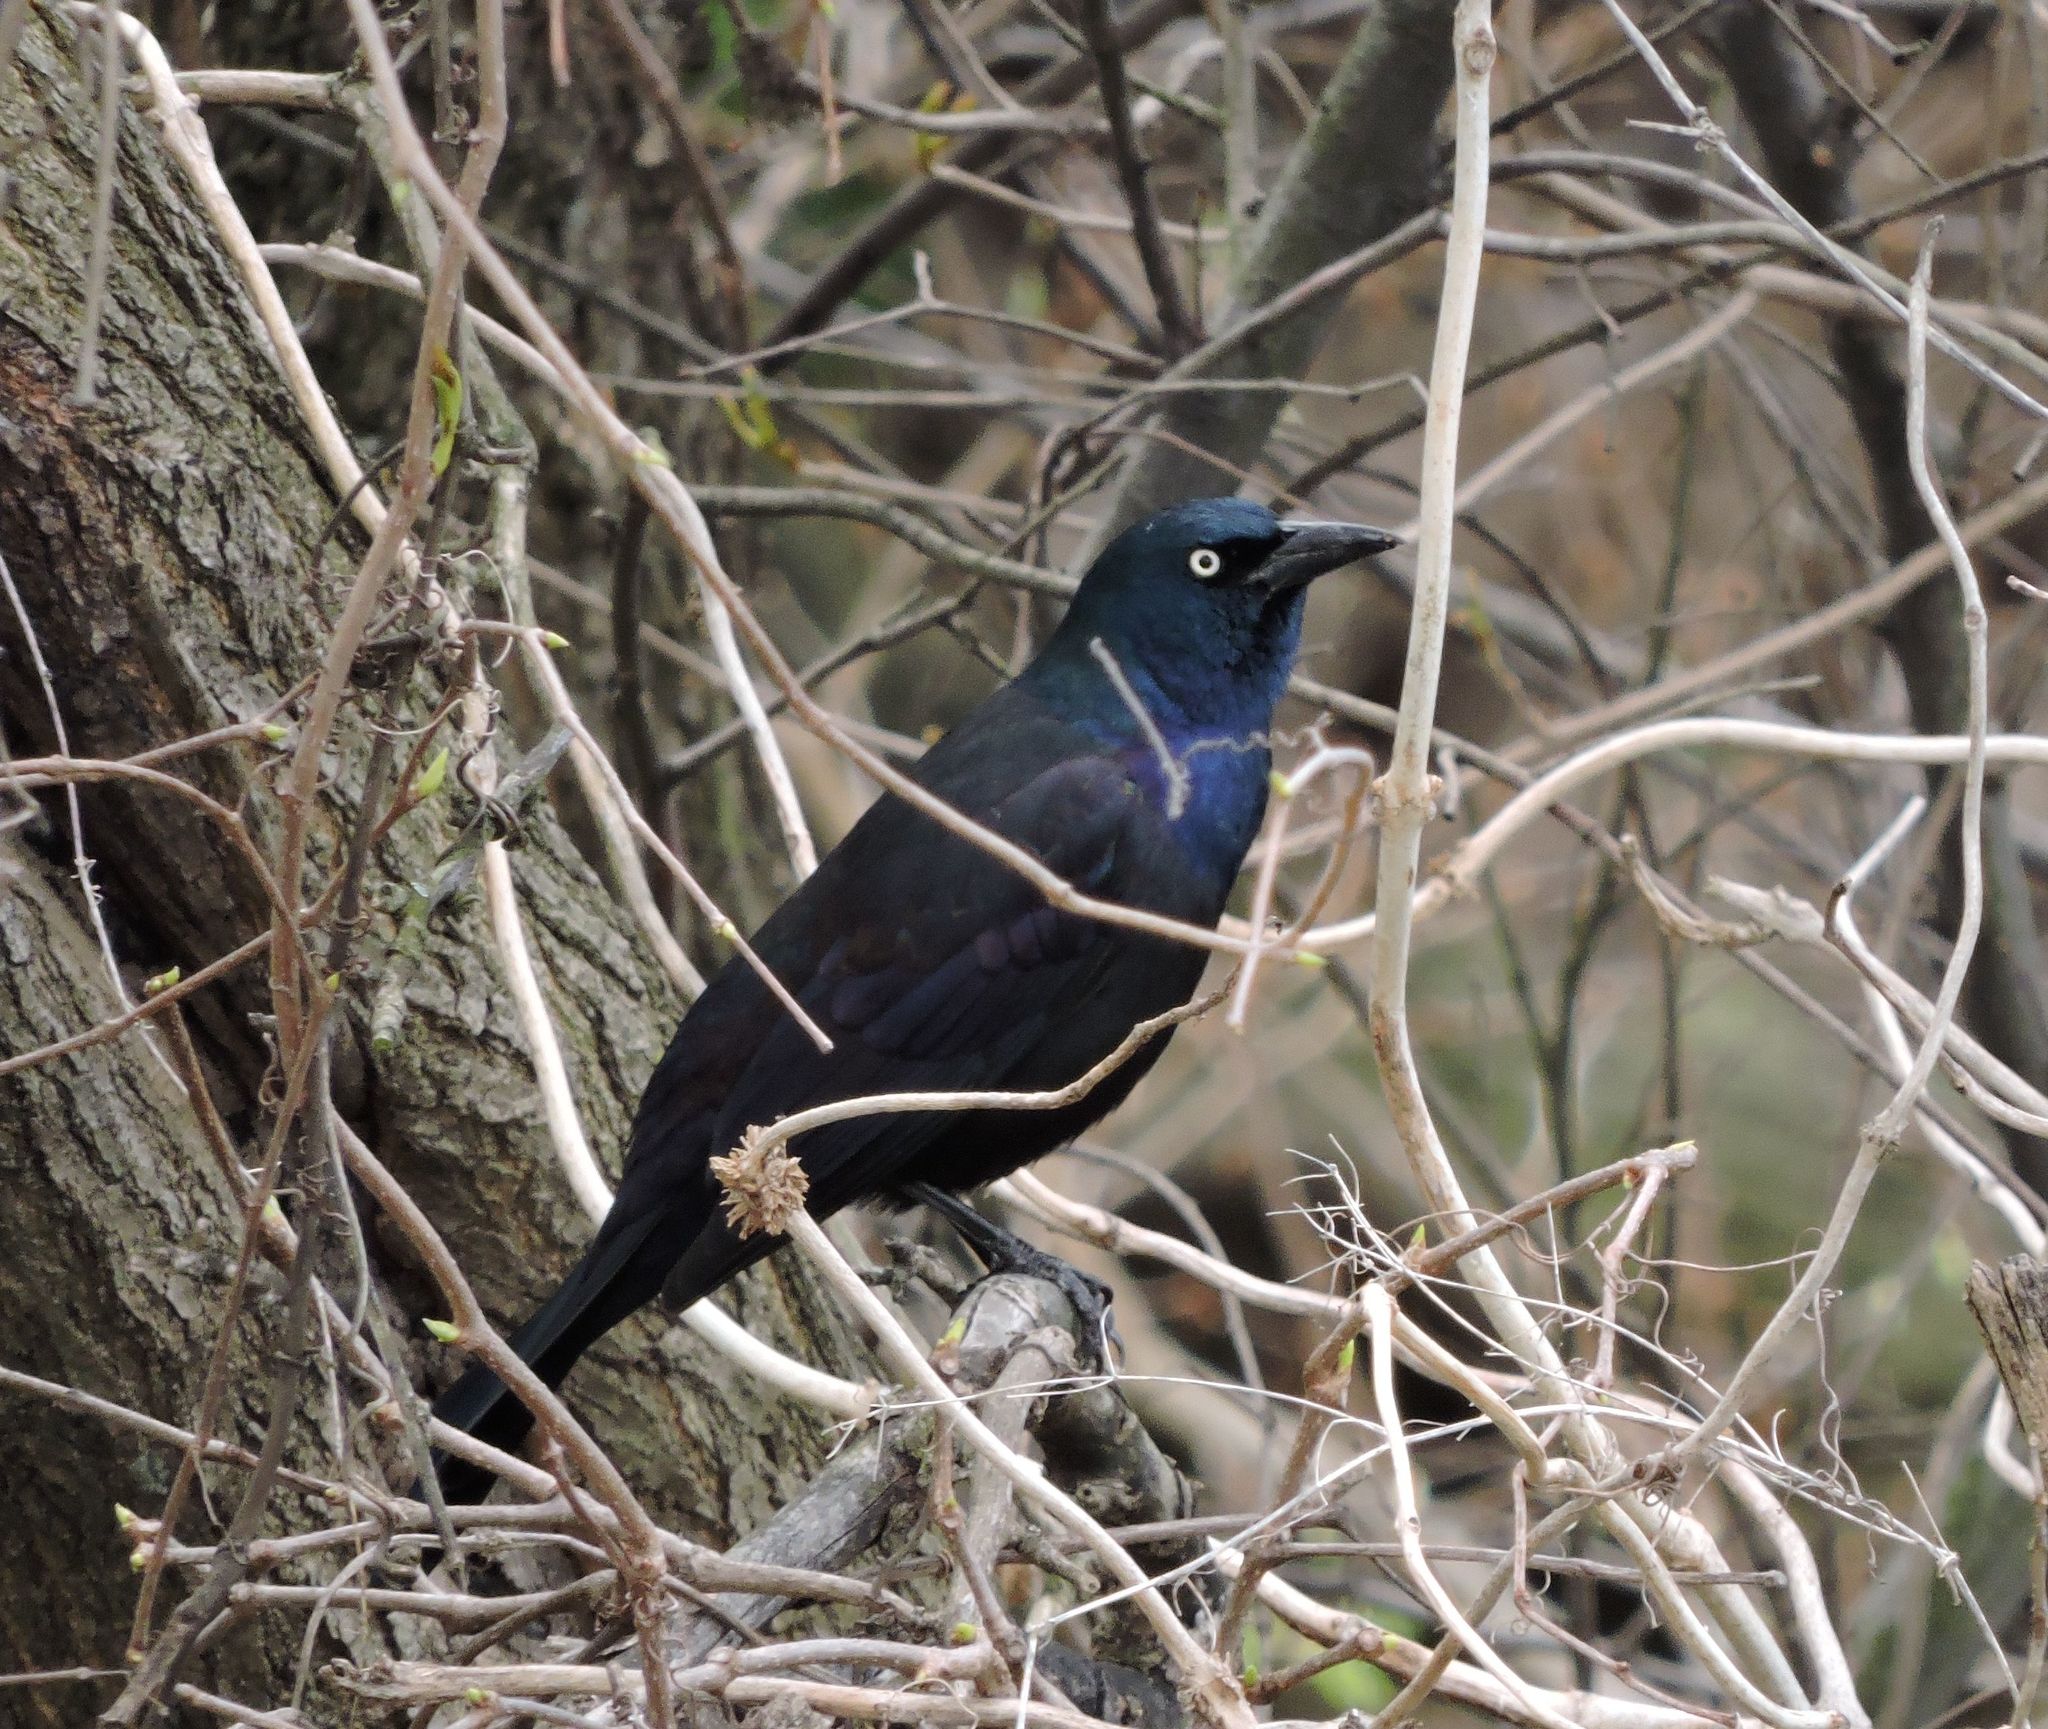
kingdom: Animalia
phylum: Chordata
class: Aves
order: Passeriformes
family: Icteridae
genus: Quiscalus
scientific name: Quiscalus quiscula
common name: Common grackle
